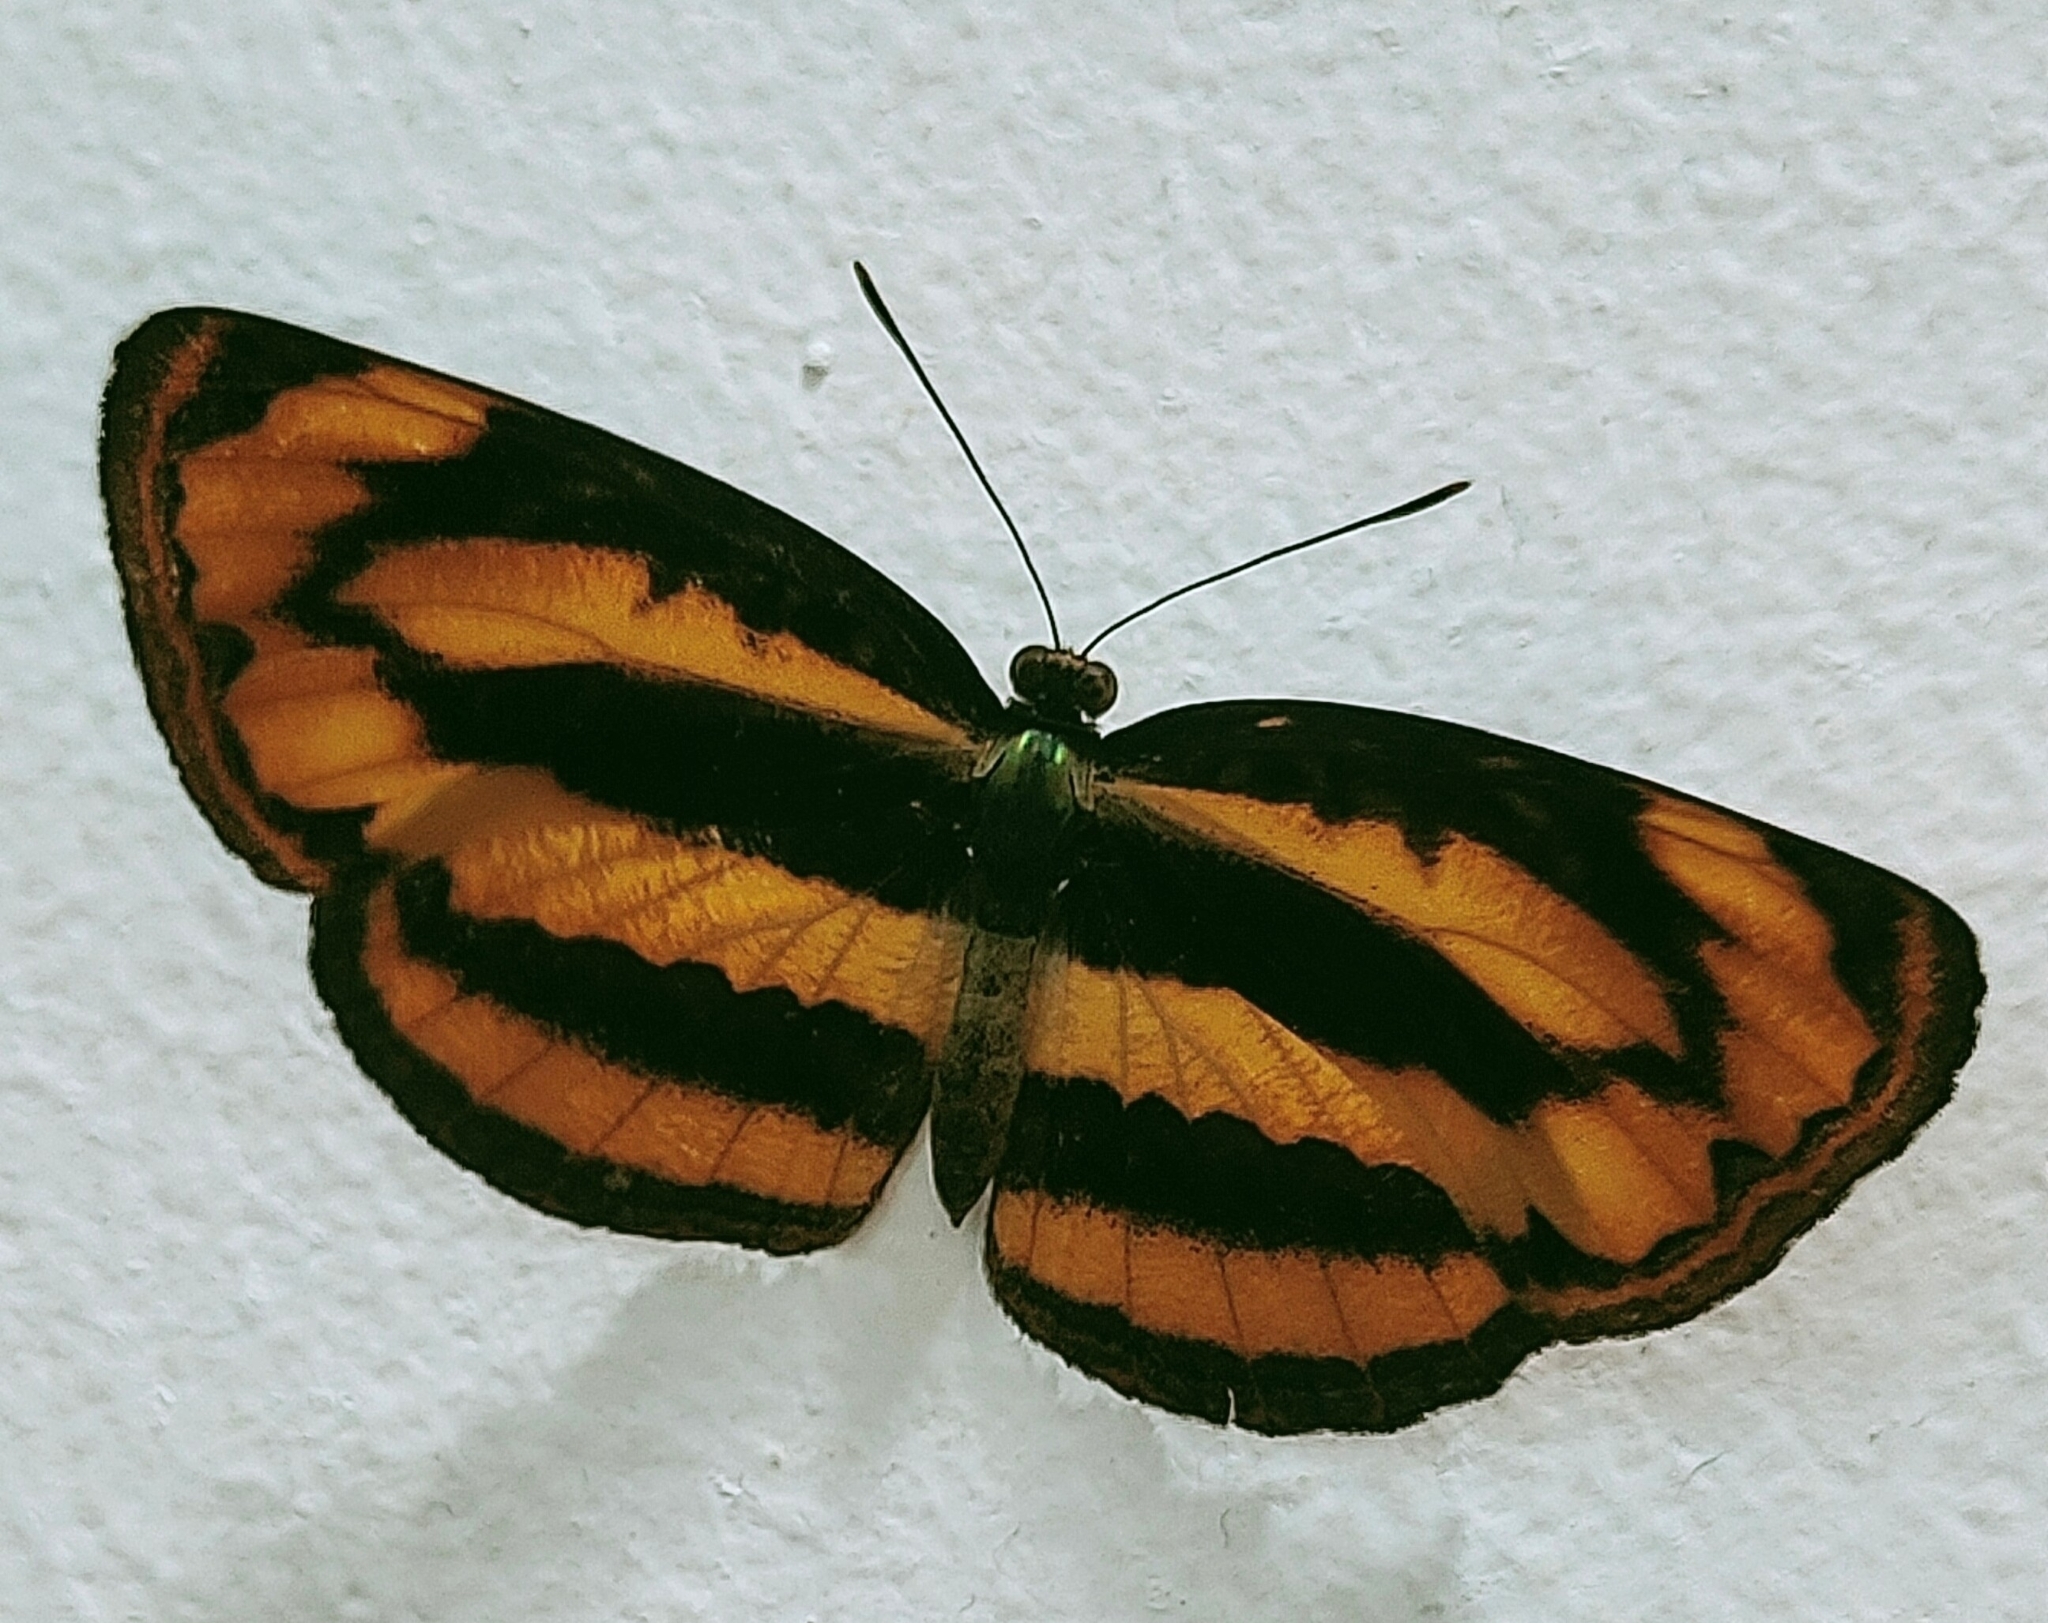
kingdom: Animalia
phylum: Arthropoda
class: Insecta
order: Lepidoptera
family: Nymphalidae
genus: Pantoporia
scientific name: Pantoporia hordonia
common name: Common lascar
